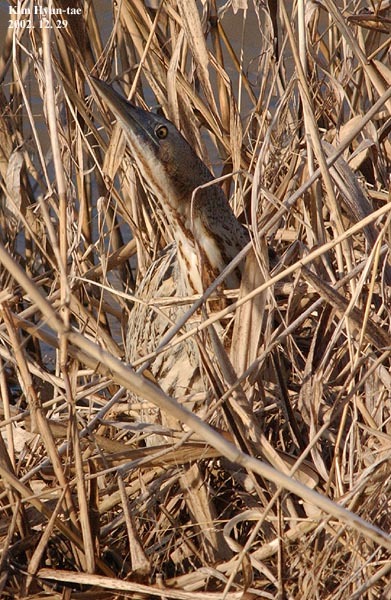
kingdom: Animalia
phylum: Chordata
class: Aves
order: Pelecaniformes
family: Ardeidae
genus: Botaurus
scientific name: Botaurus stellaris
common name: Eurasian bittern
